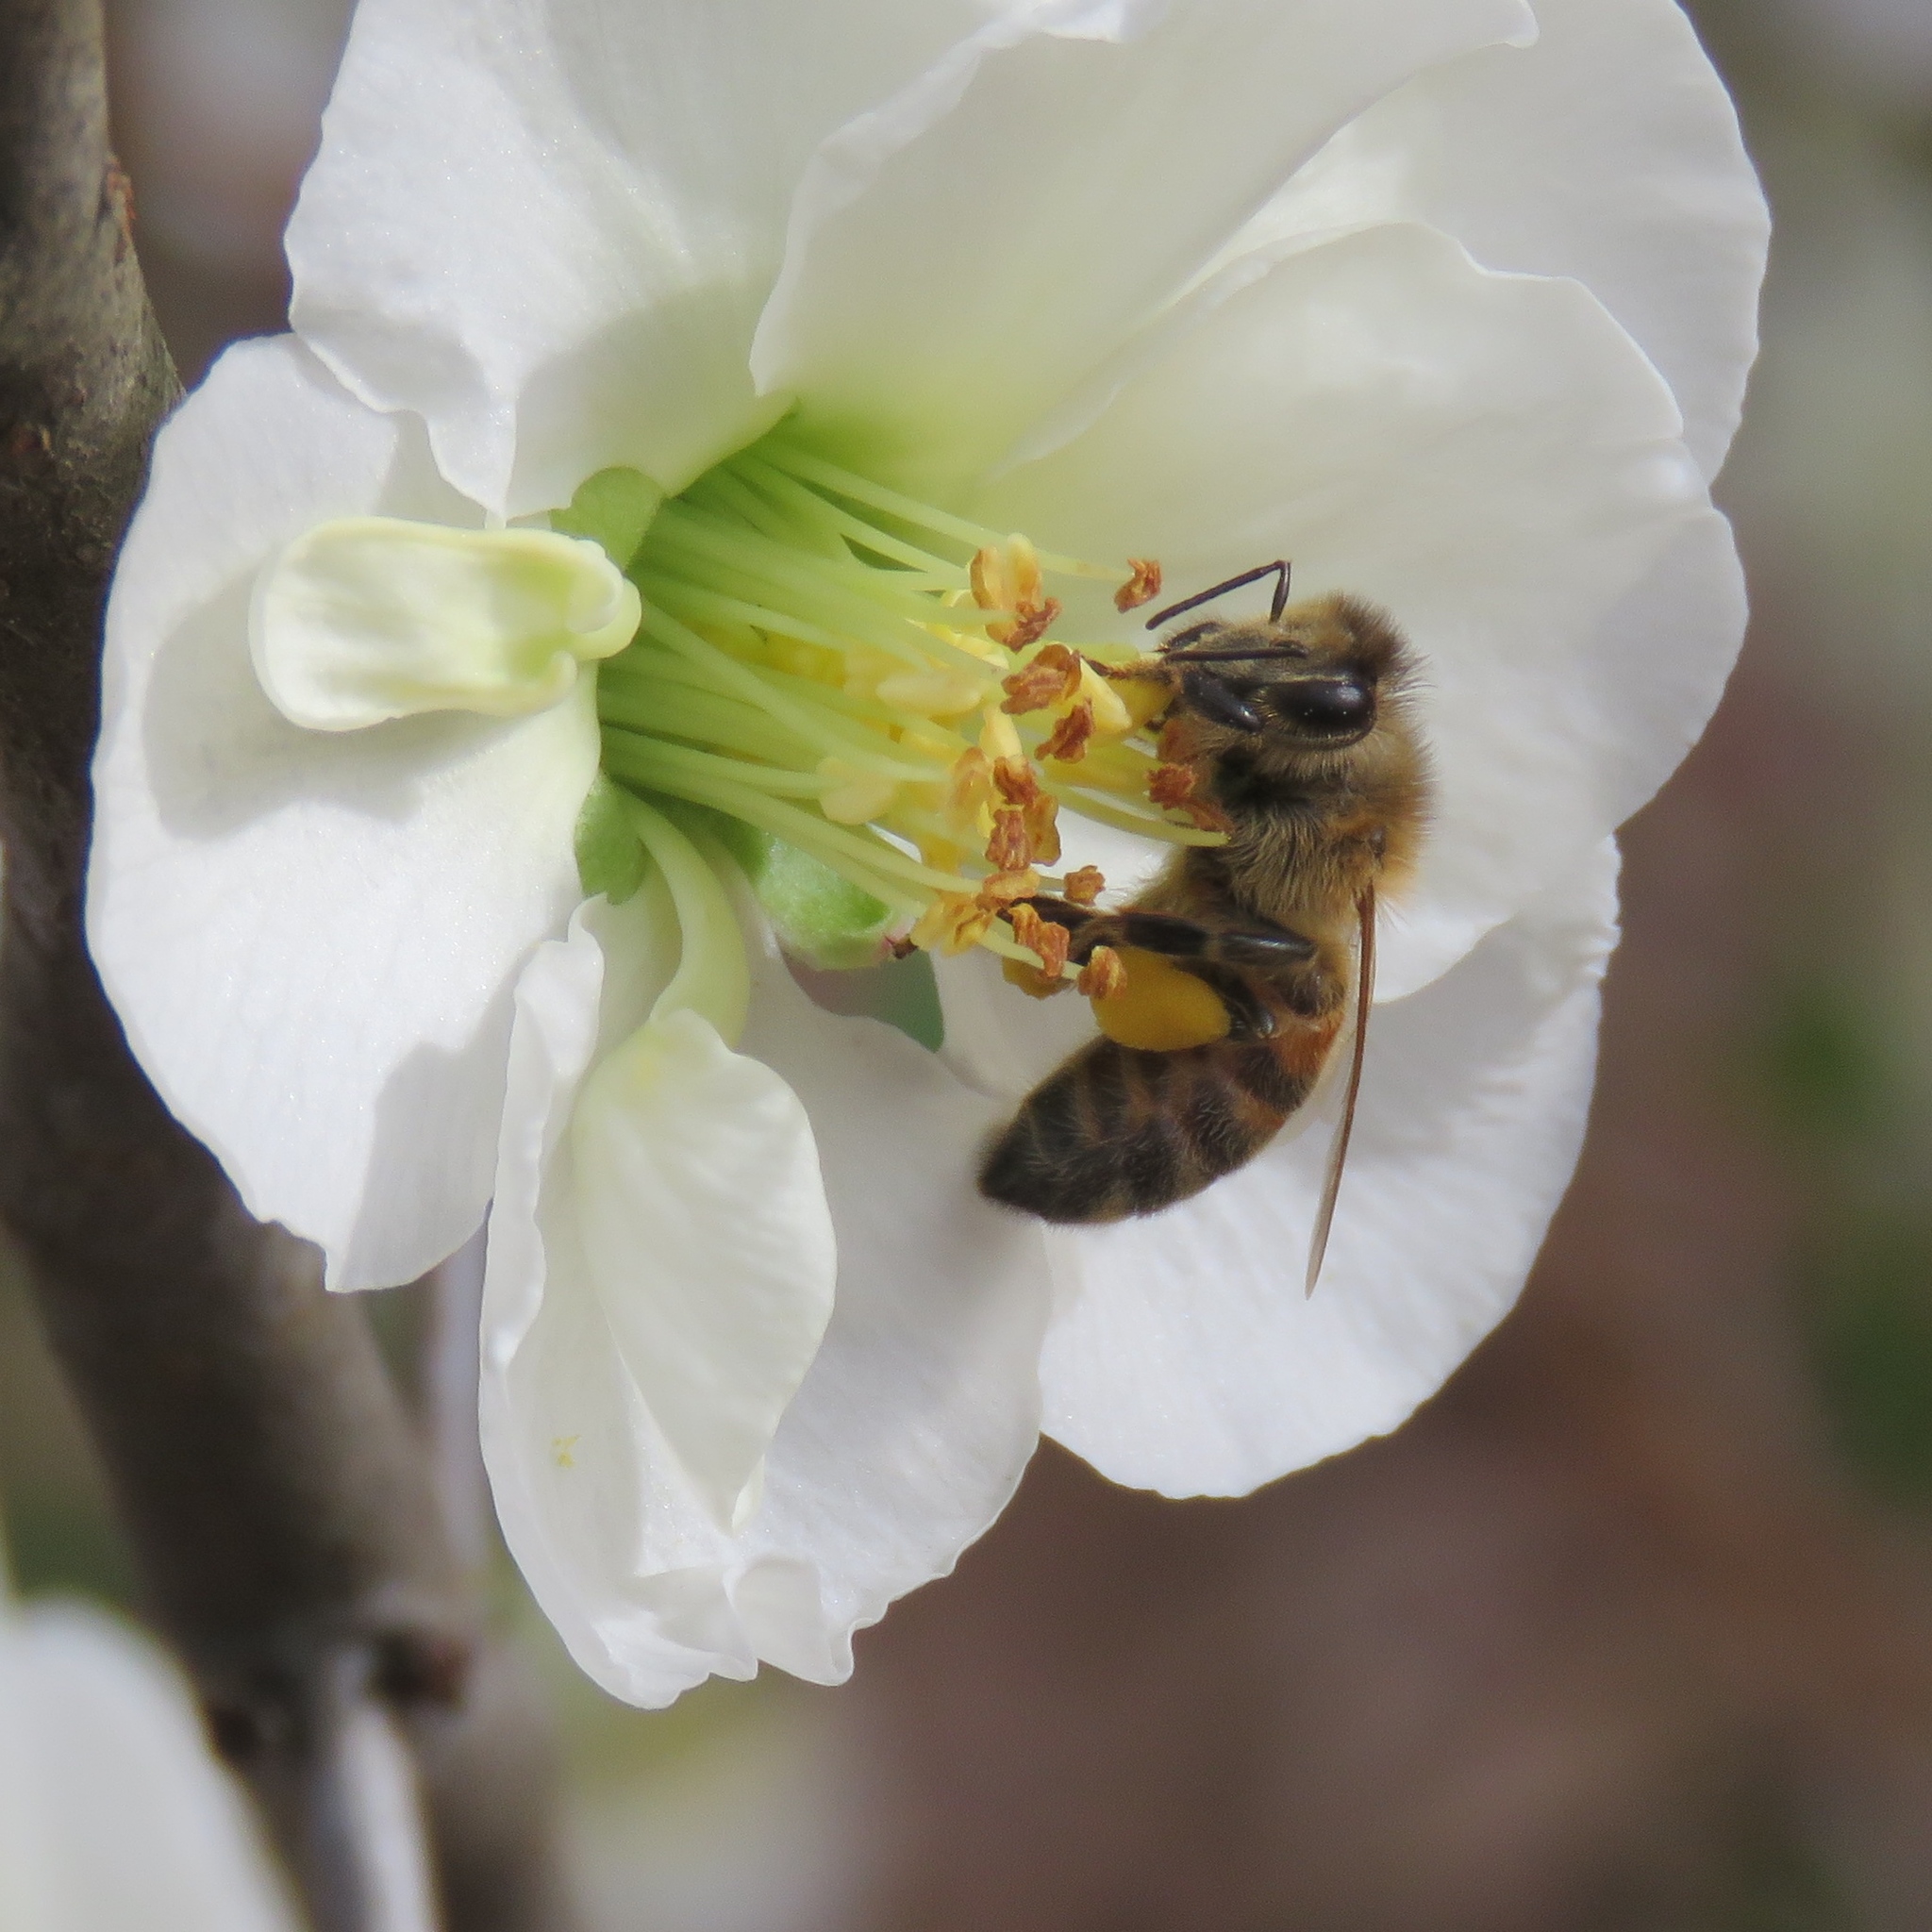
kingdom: Animalia
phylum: Arthropoda
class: Insecta
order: Hymenoptera
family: Apidae
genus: Apis
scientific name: Apis mellifera
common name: Honey bee
